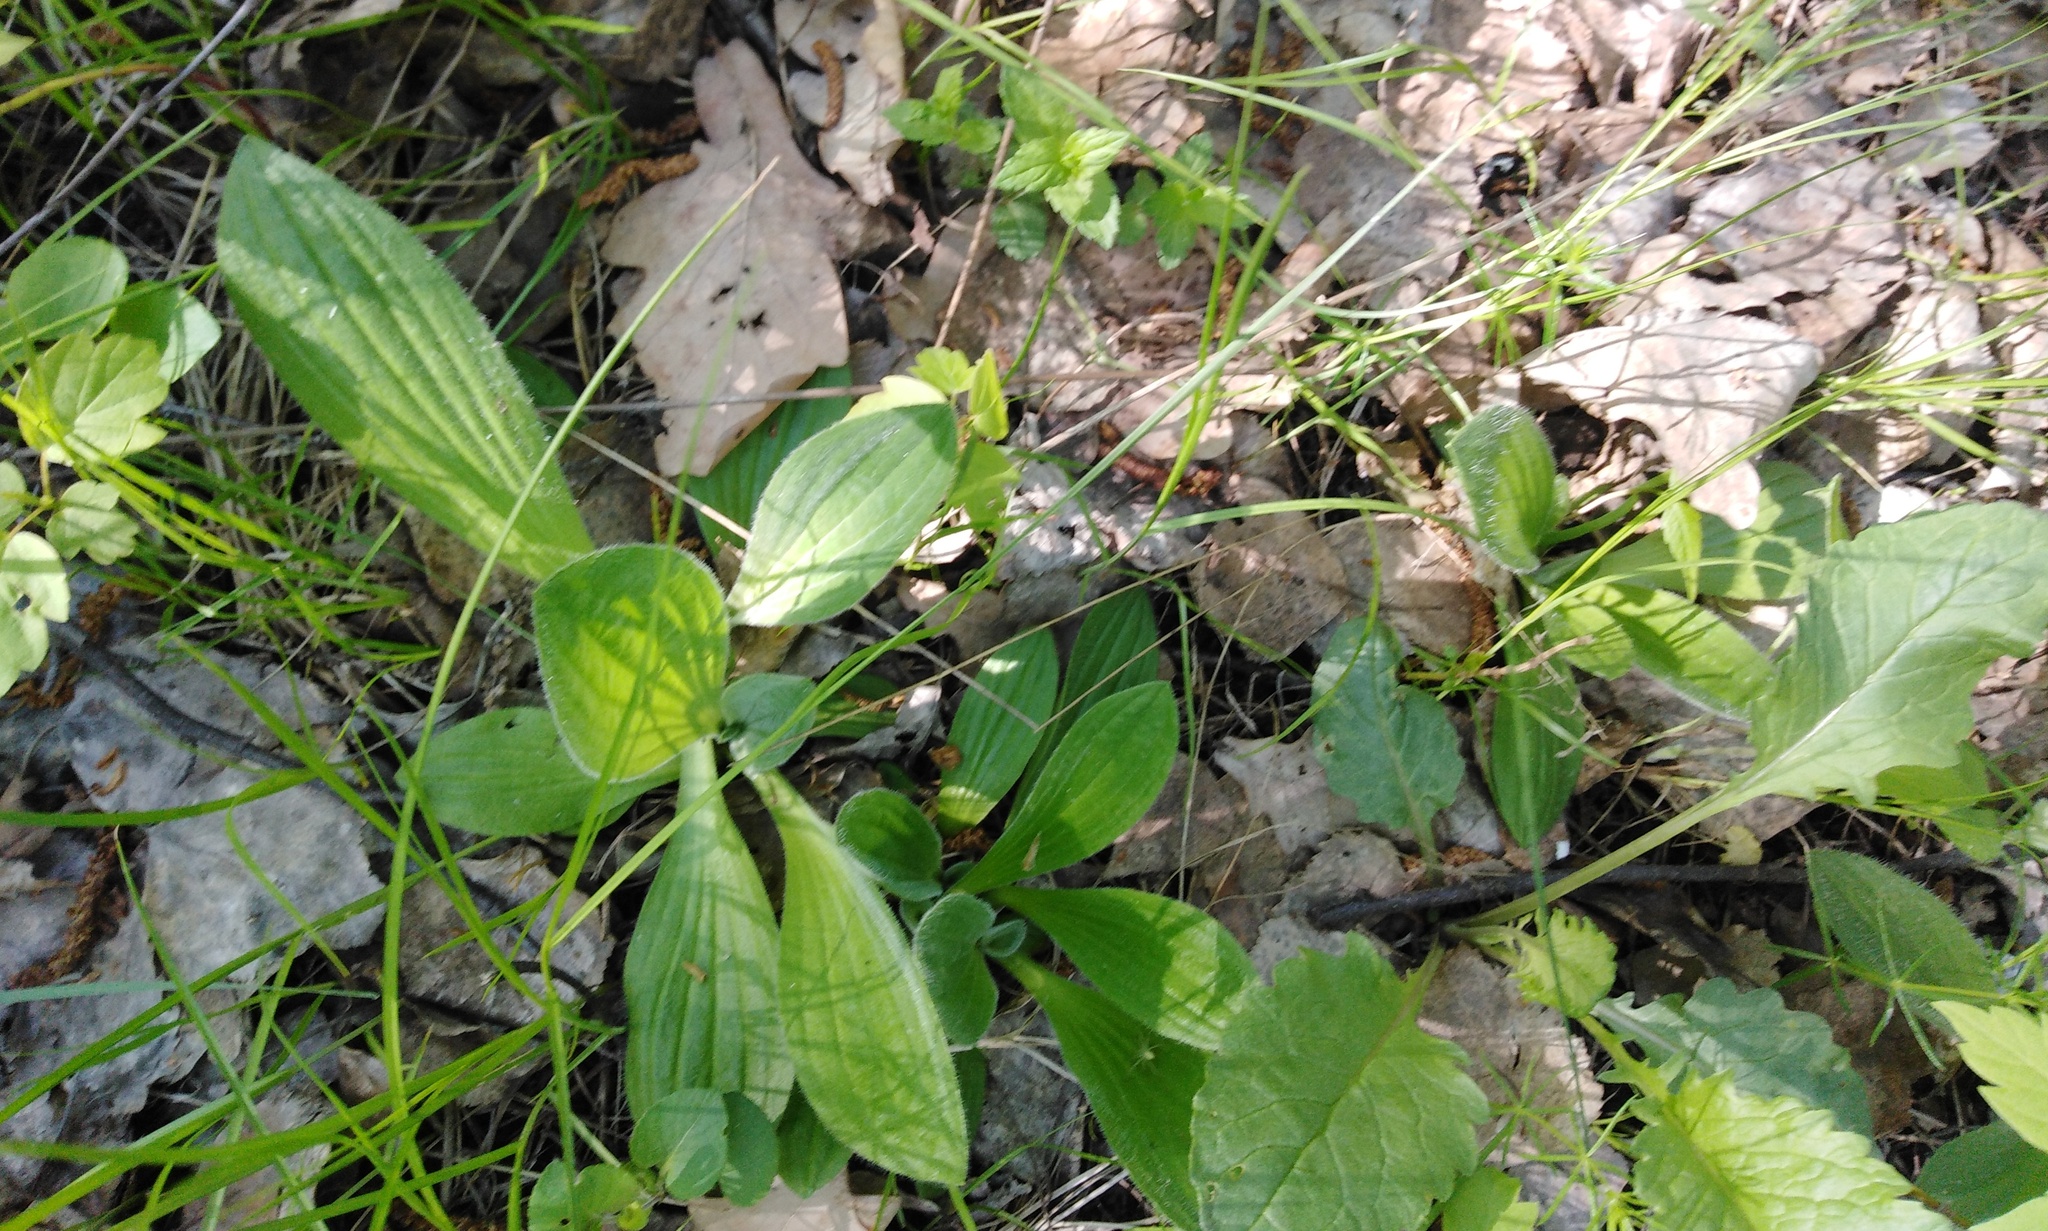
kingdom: Plantae
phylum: Tracheophyta
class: Magnoliopsida
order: Lamiales
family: Plantaginaceae
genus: Plantago
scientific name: Plantago media
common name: Hoary plantain
